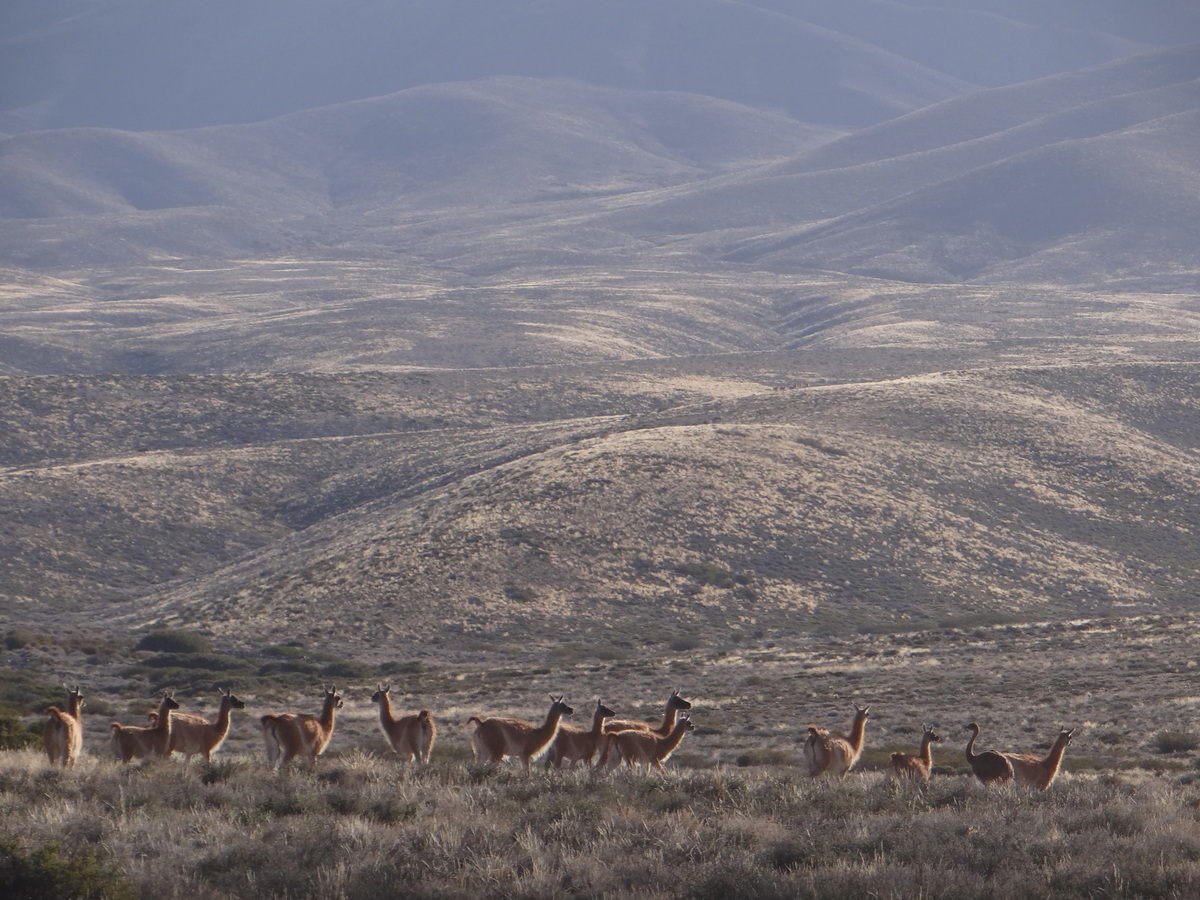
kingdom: Animalia
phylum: Chordata
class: Mammalia
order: Artiodactyla
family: Camelidae
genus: Lama
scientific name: Lama glama
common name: Llama
